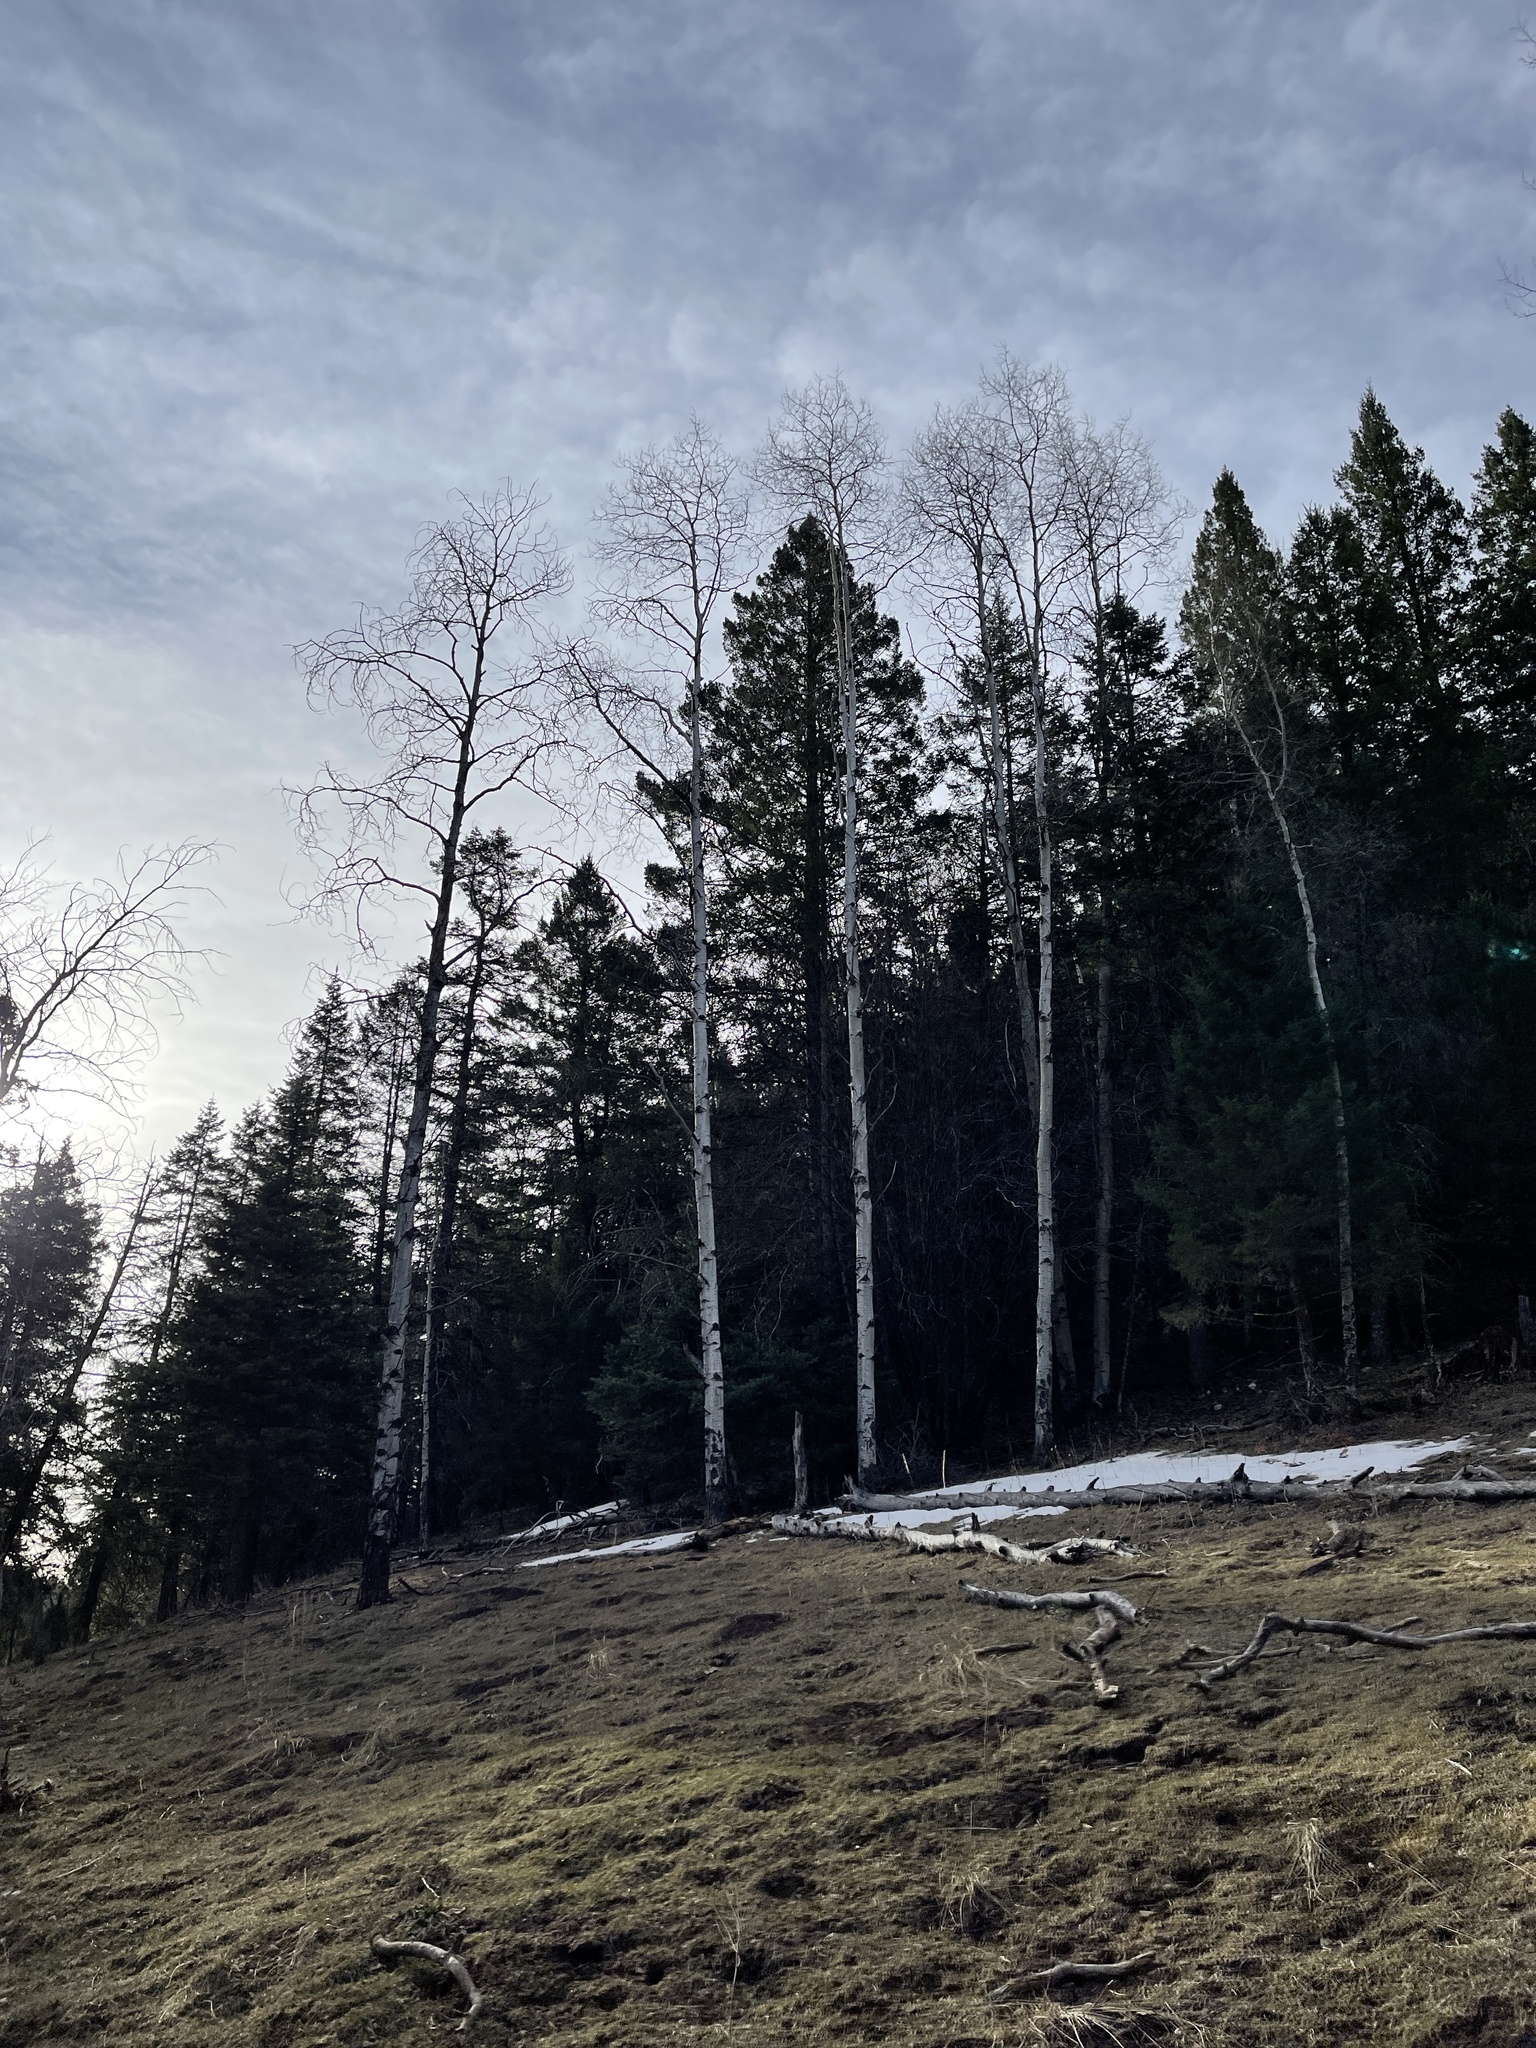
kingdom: Plantae
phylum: Tracheophyta
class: Magnoliopsida
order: Malpighiales
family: Salicaceae
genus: Populus
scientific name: Populus tremuloides
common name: Quaking aspen
